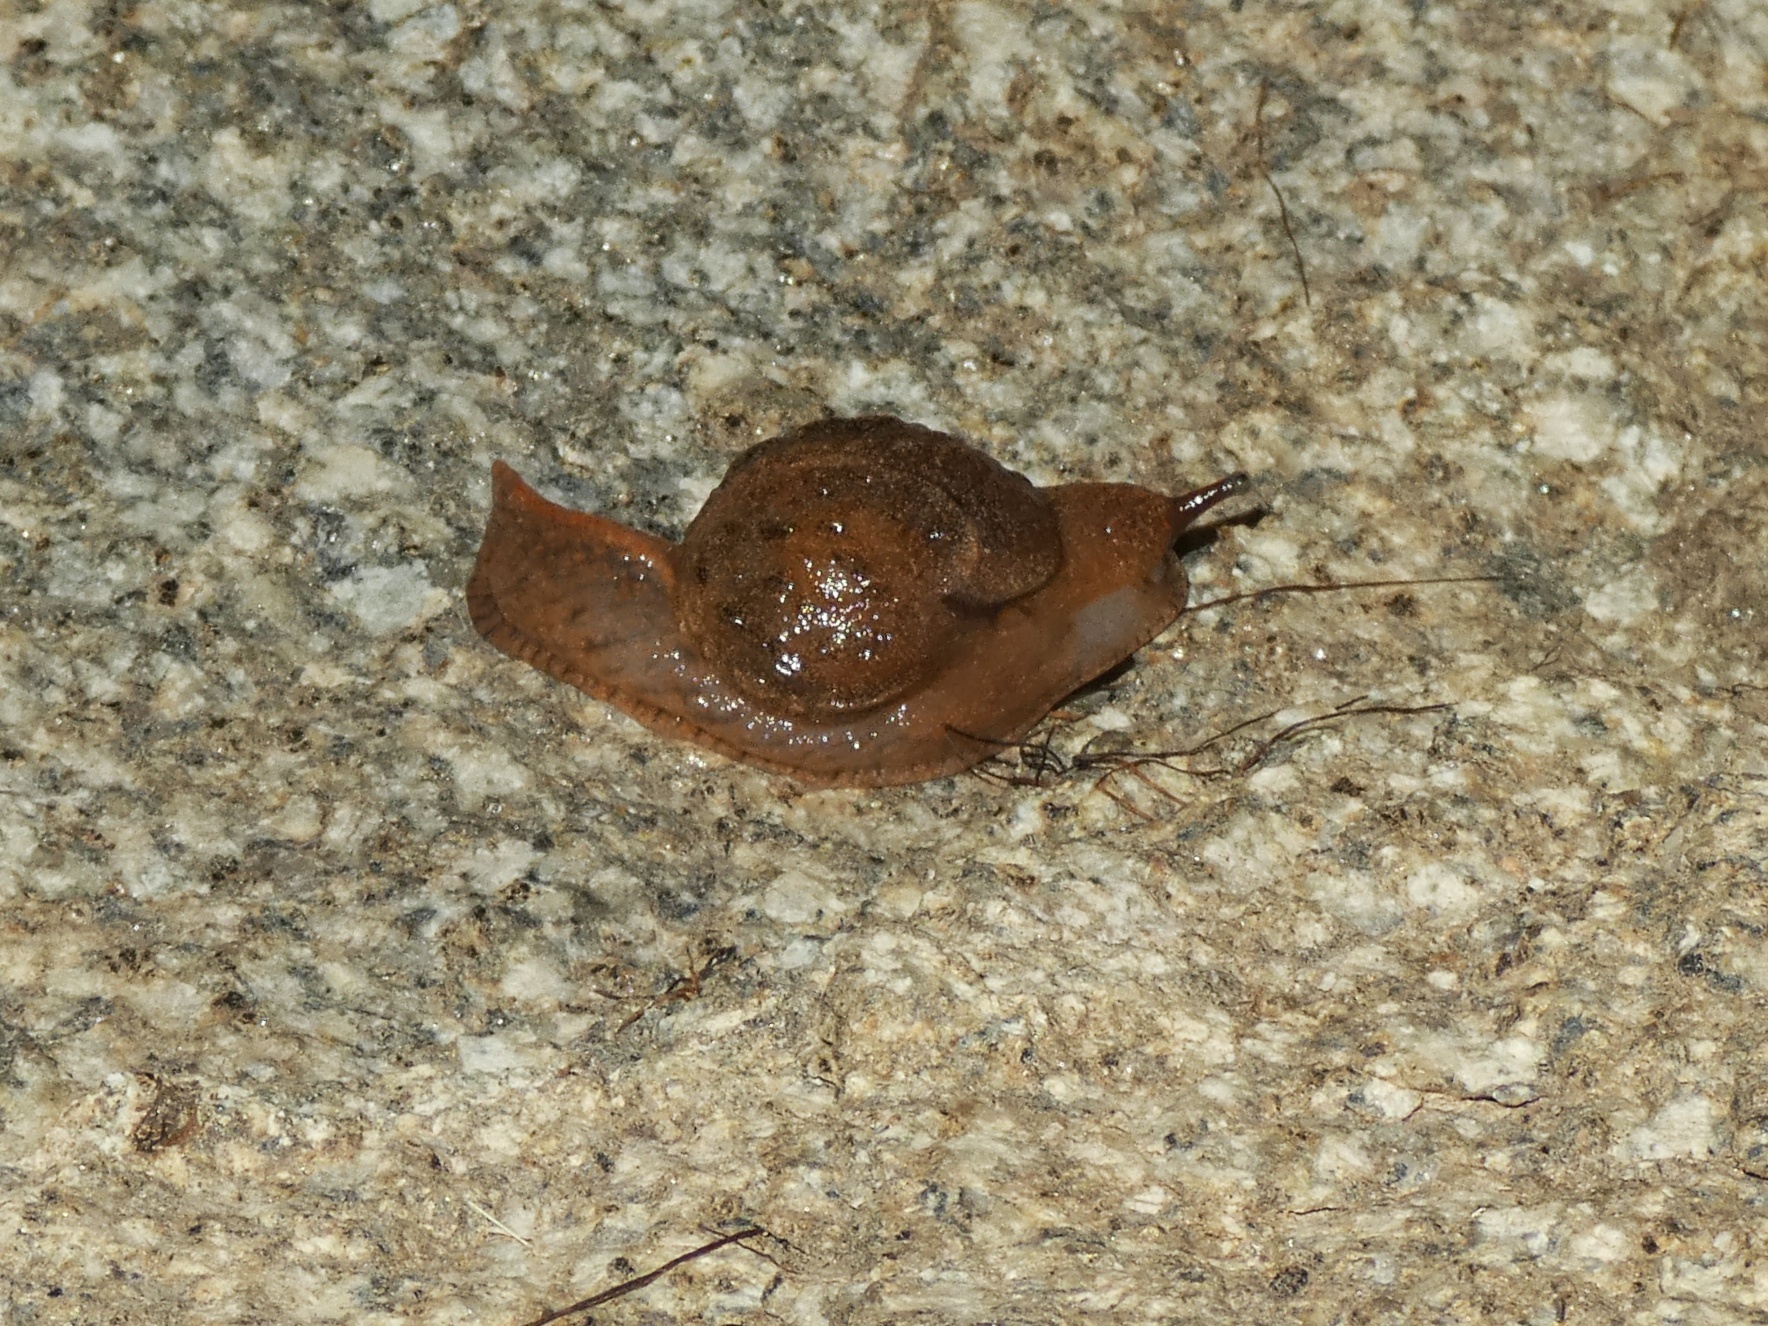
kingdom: Animalia
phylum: Mollusca
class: Gastropoda
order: Stylommatophora
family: Helicarionidae
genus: Fastosarion
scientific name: Fastosarion brazieri
